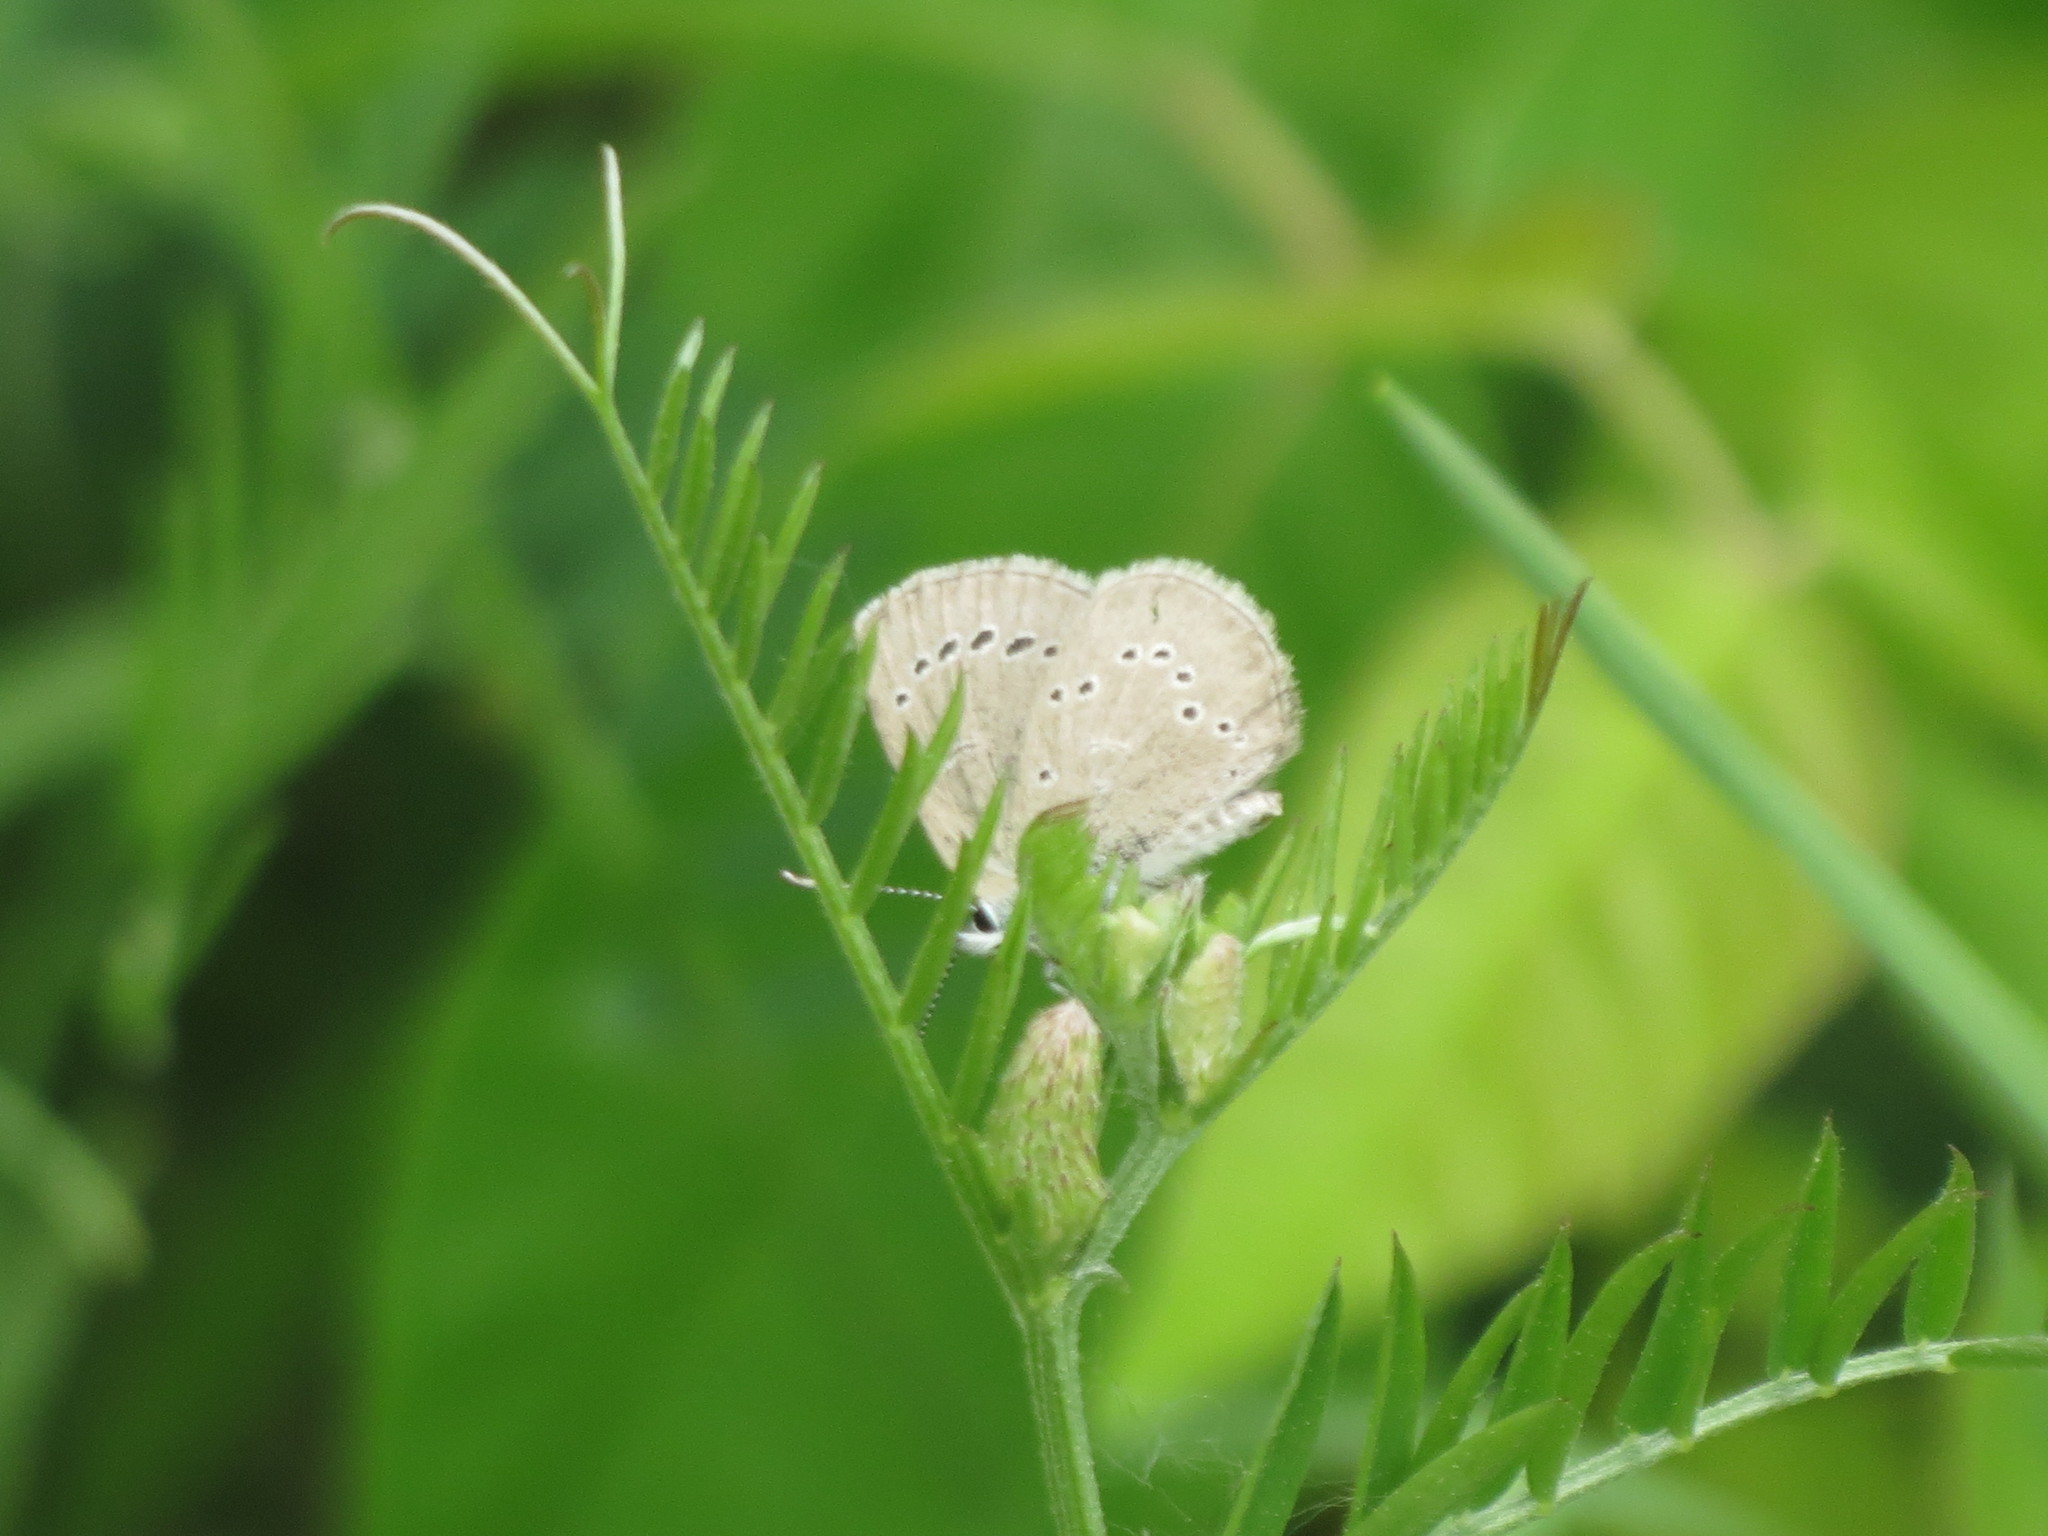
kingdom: Animalia
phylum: Arthropoda
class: Insecta
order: Lepidoptera
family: Lycaenidae
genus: Glaucopsyche
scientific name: Glaucopsyche lygdamus
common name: Silvery blue
